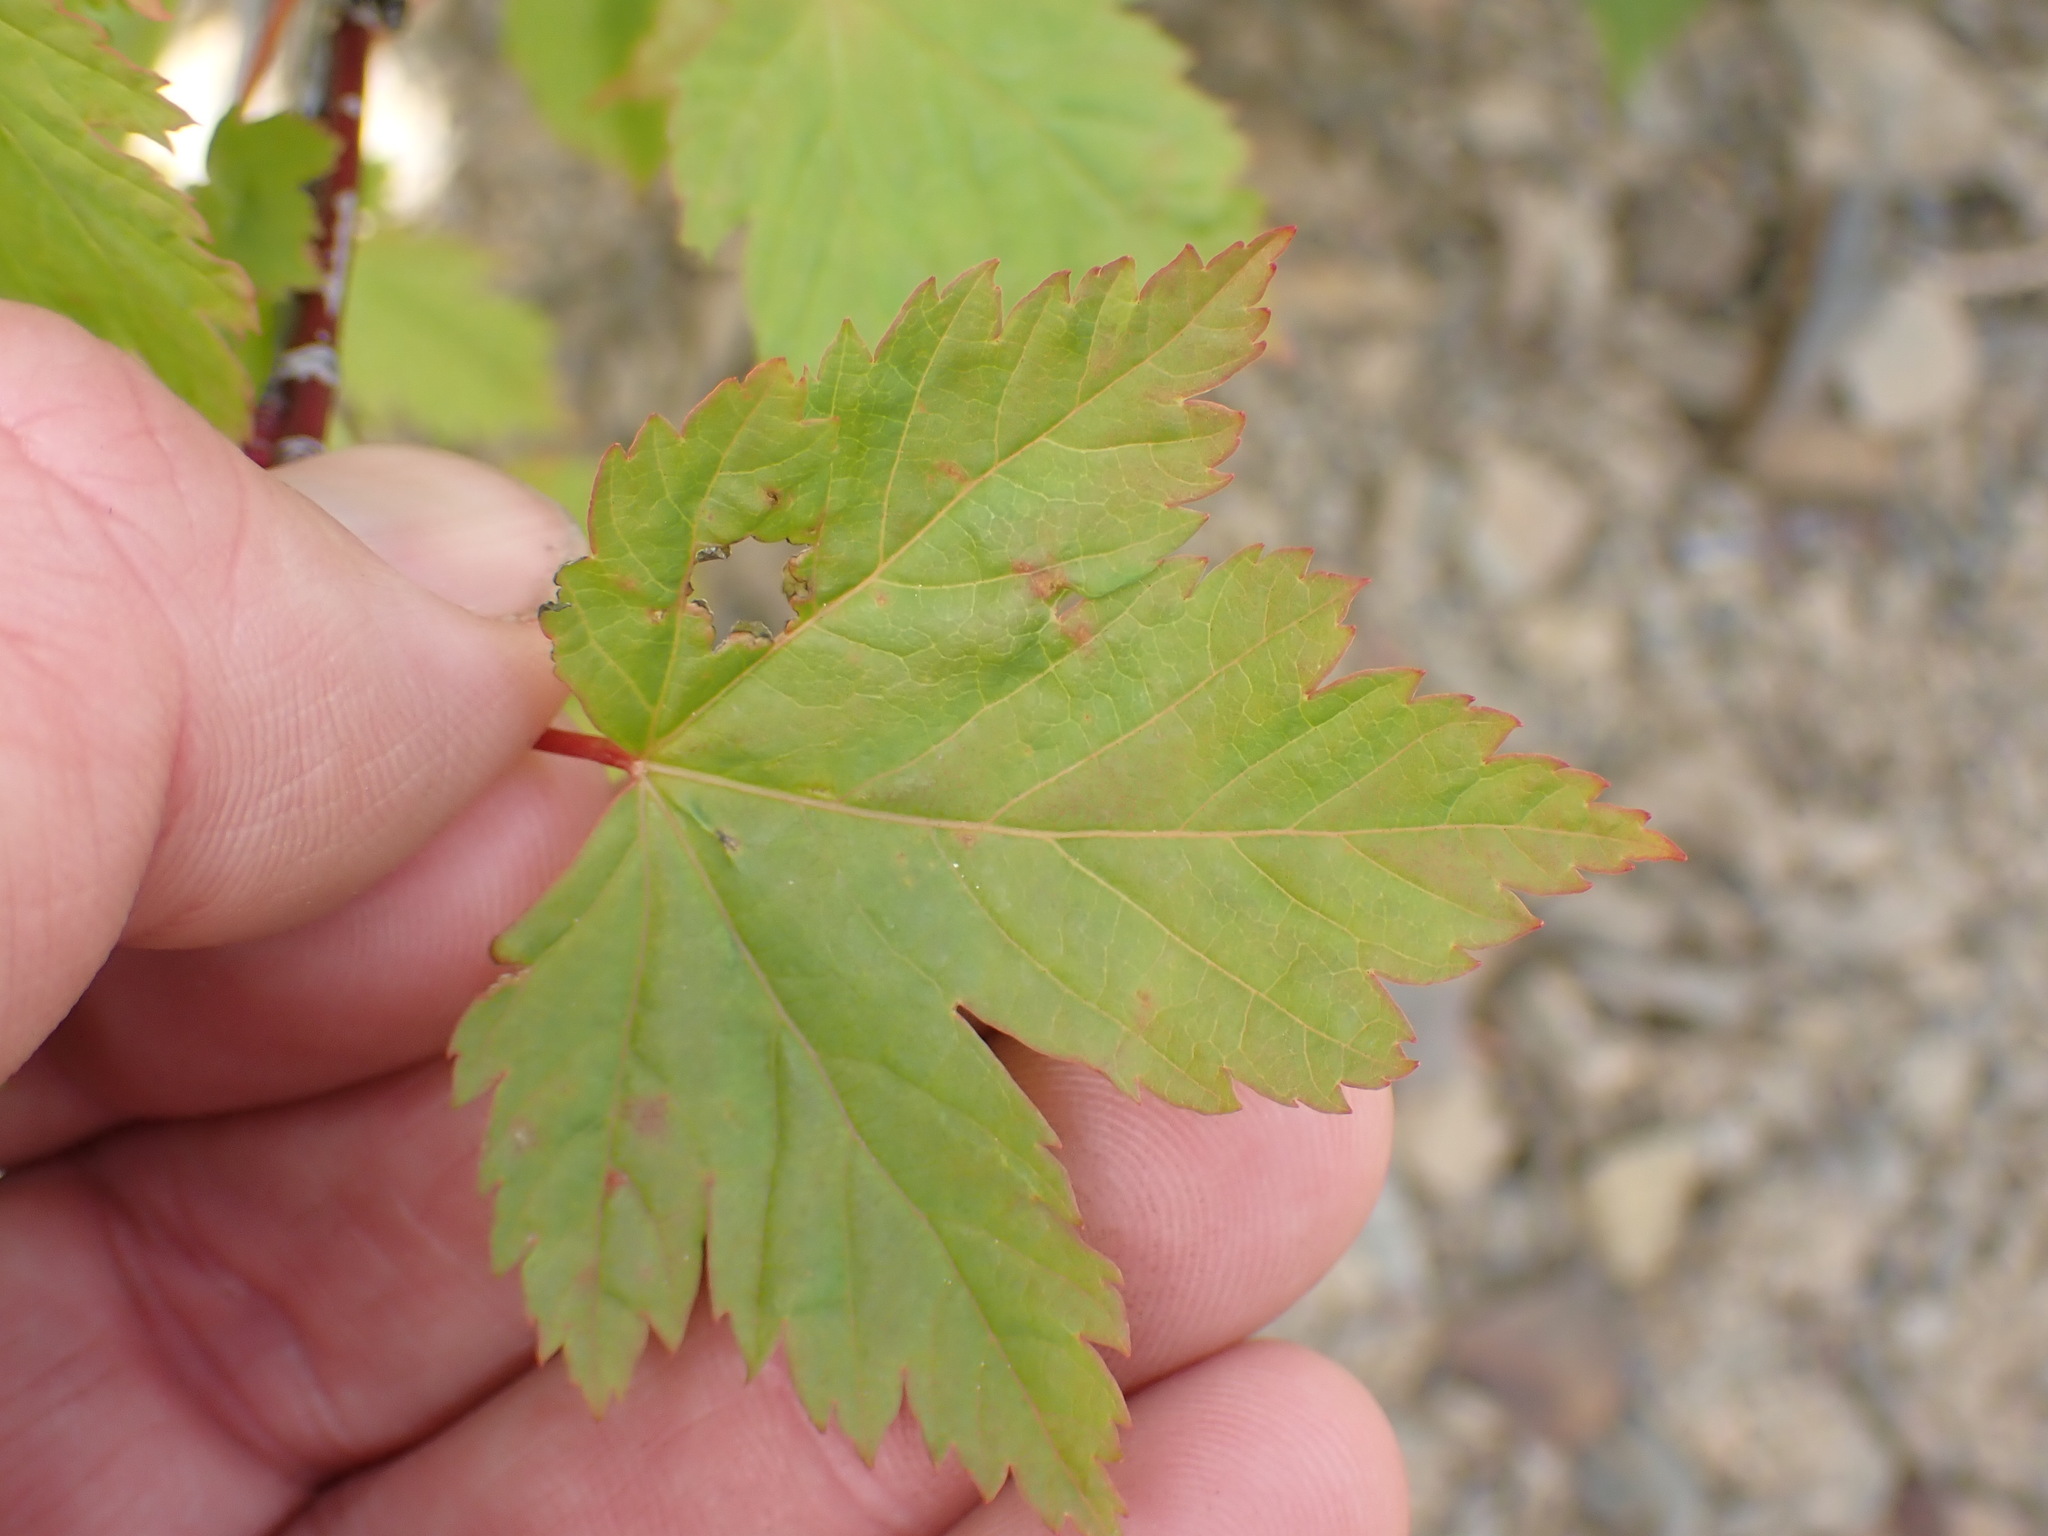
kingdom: Plantae
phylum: Tracheophyta
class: Magnoliopsida
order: Sapindales
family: Sapindaceae
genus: Acer
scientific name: Acer glabrum
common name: Rocky mountain maple
